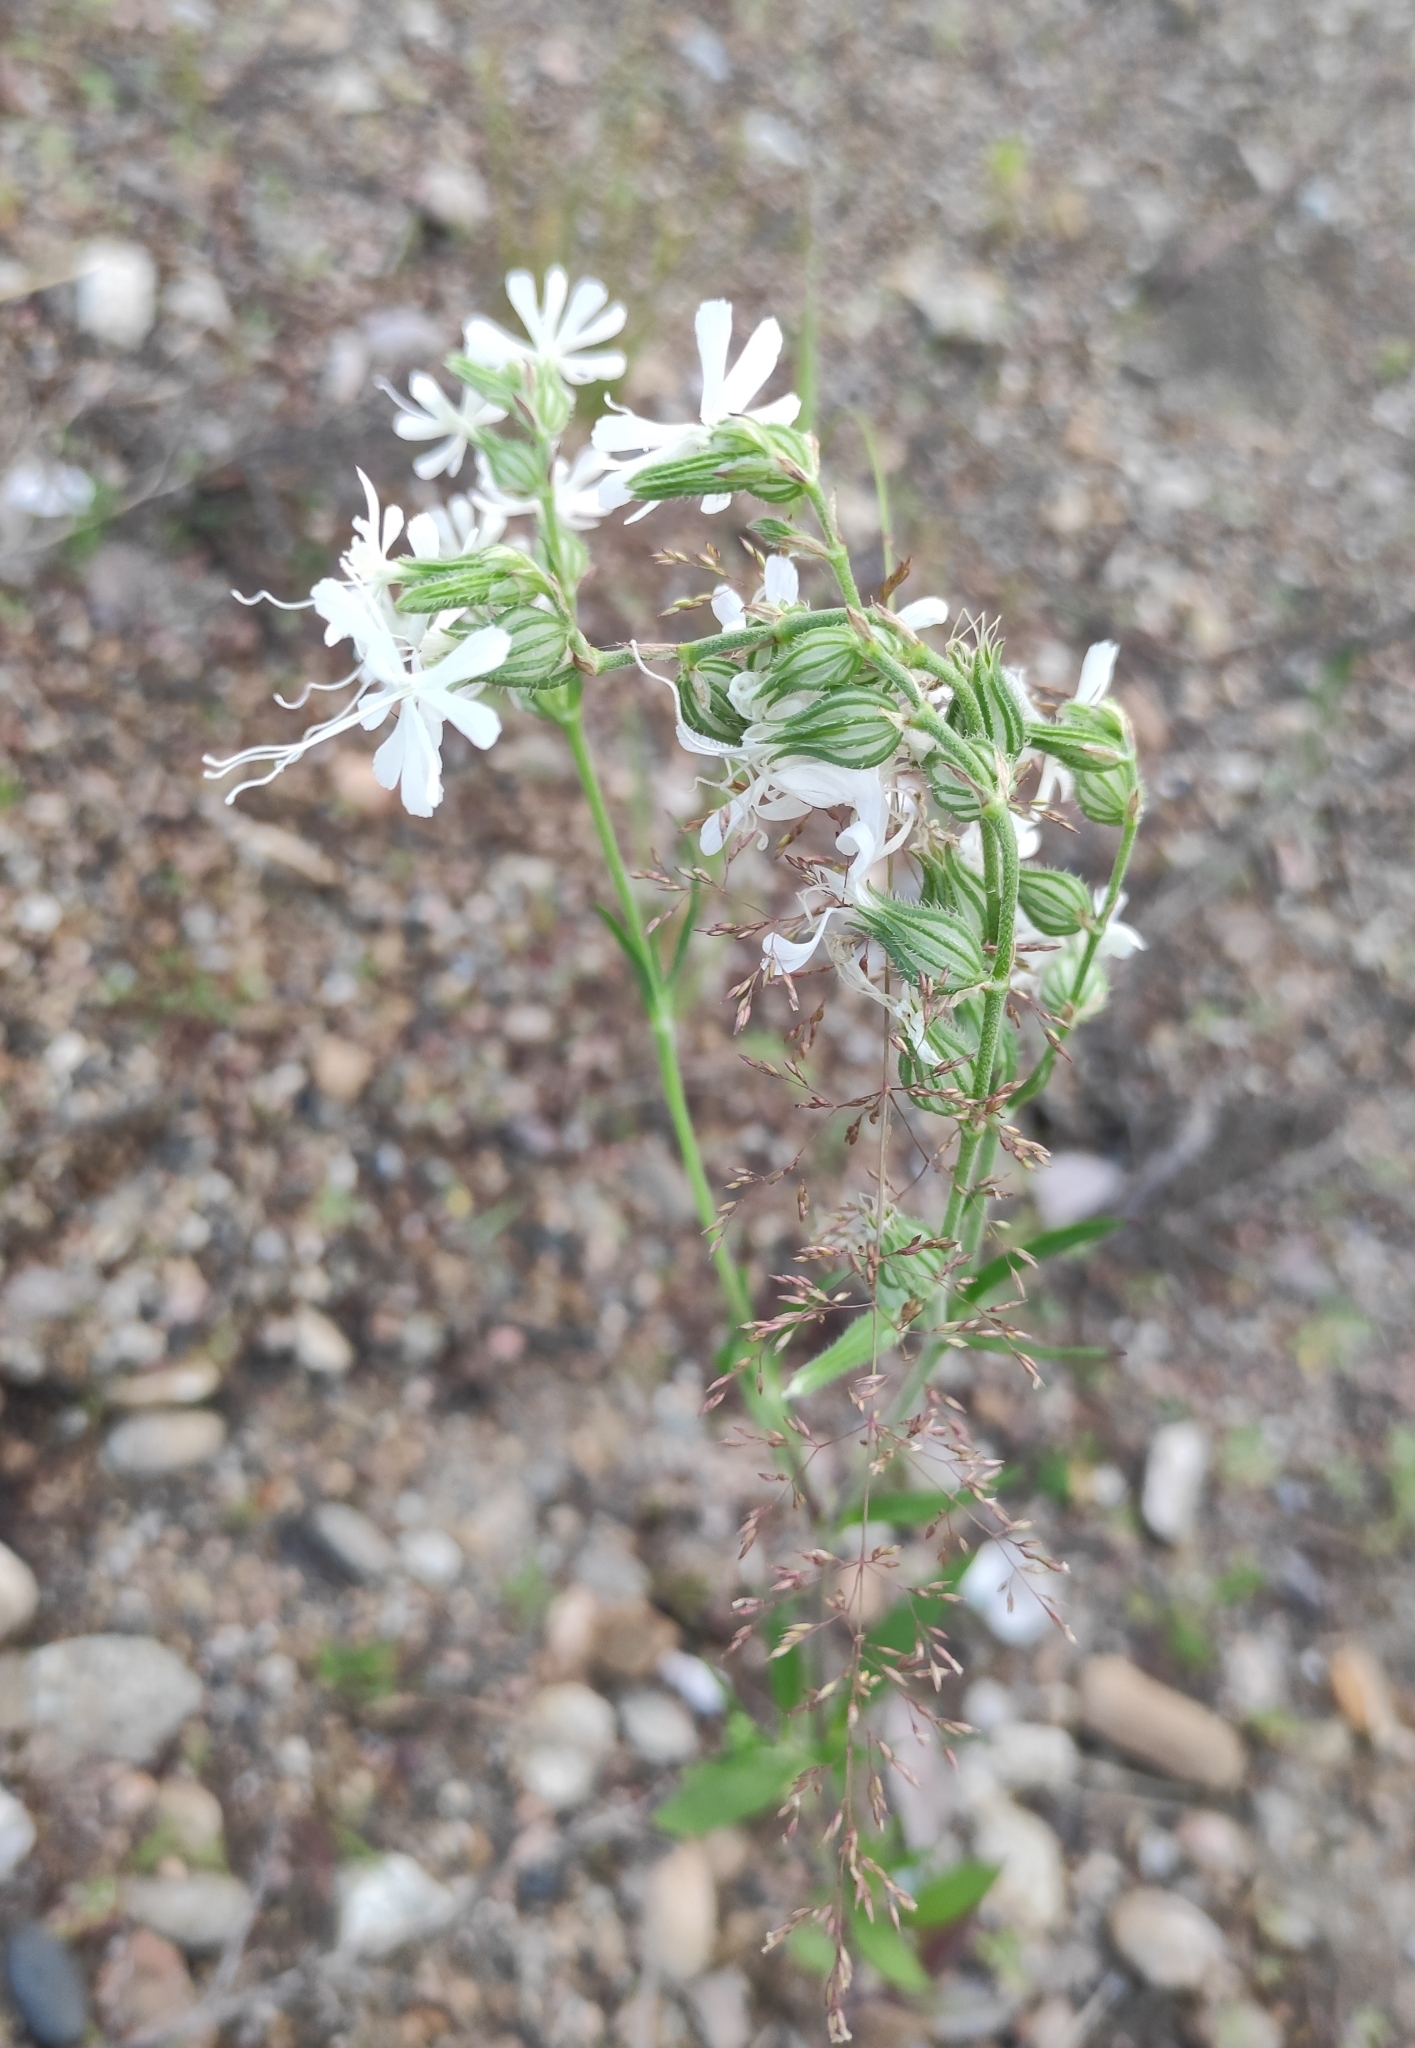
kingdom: Plantae
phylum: Tracheophyta
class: Magnoliopsida
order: Caryophyllales
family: Caryophyllaceae
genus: Silene
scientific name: Silene dichotoma
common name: Forked catchfly
